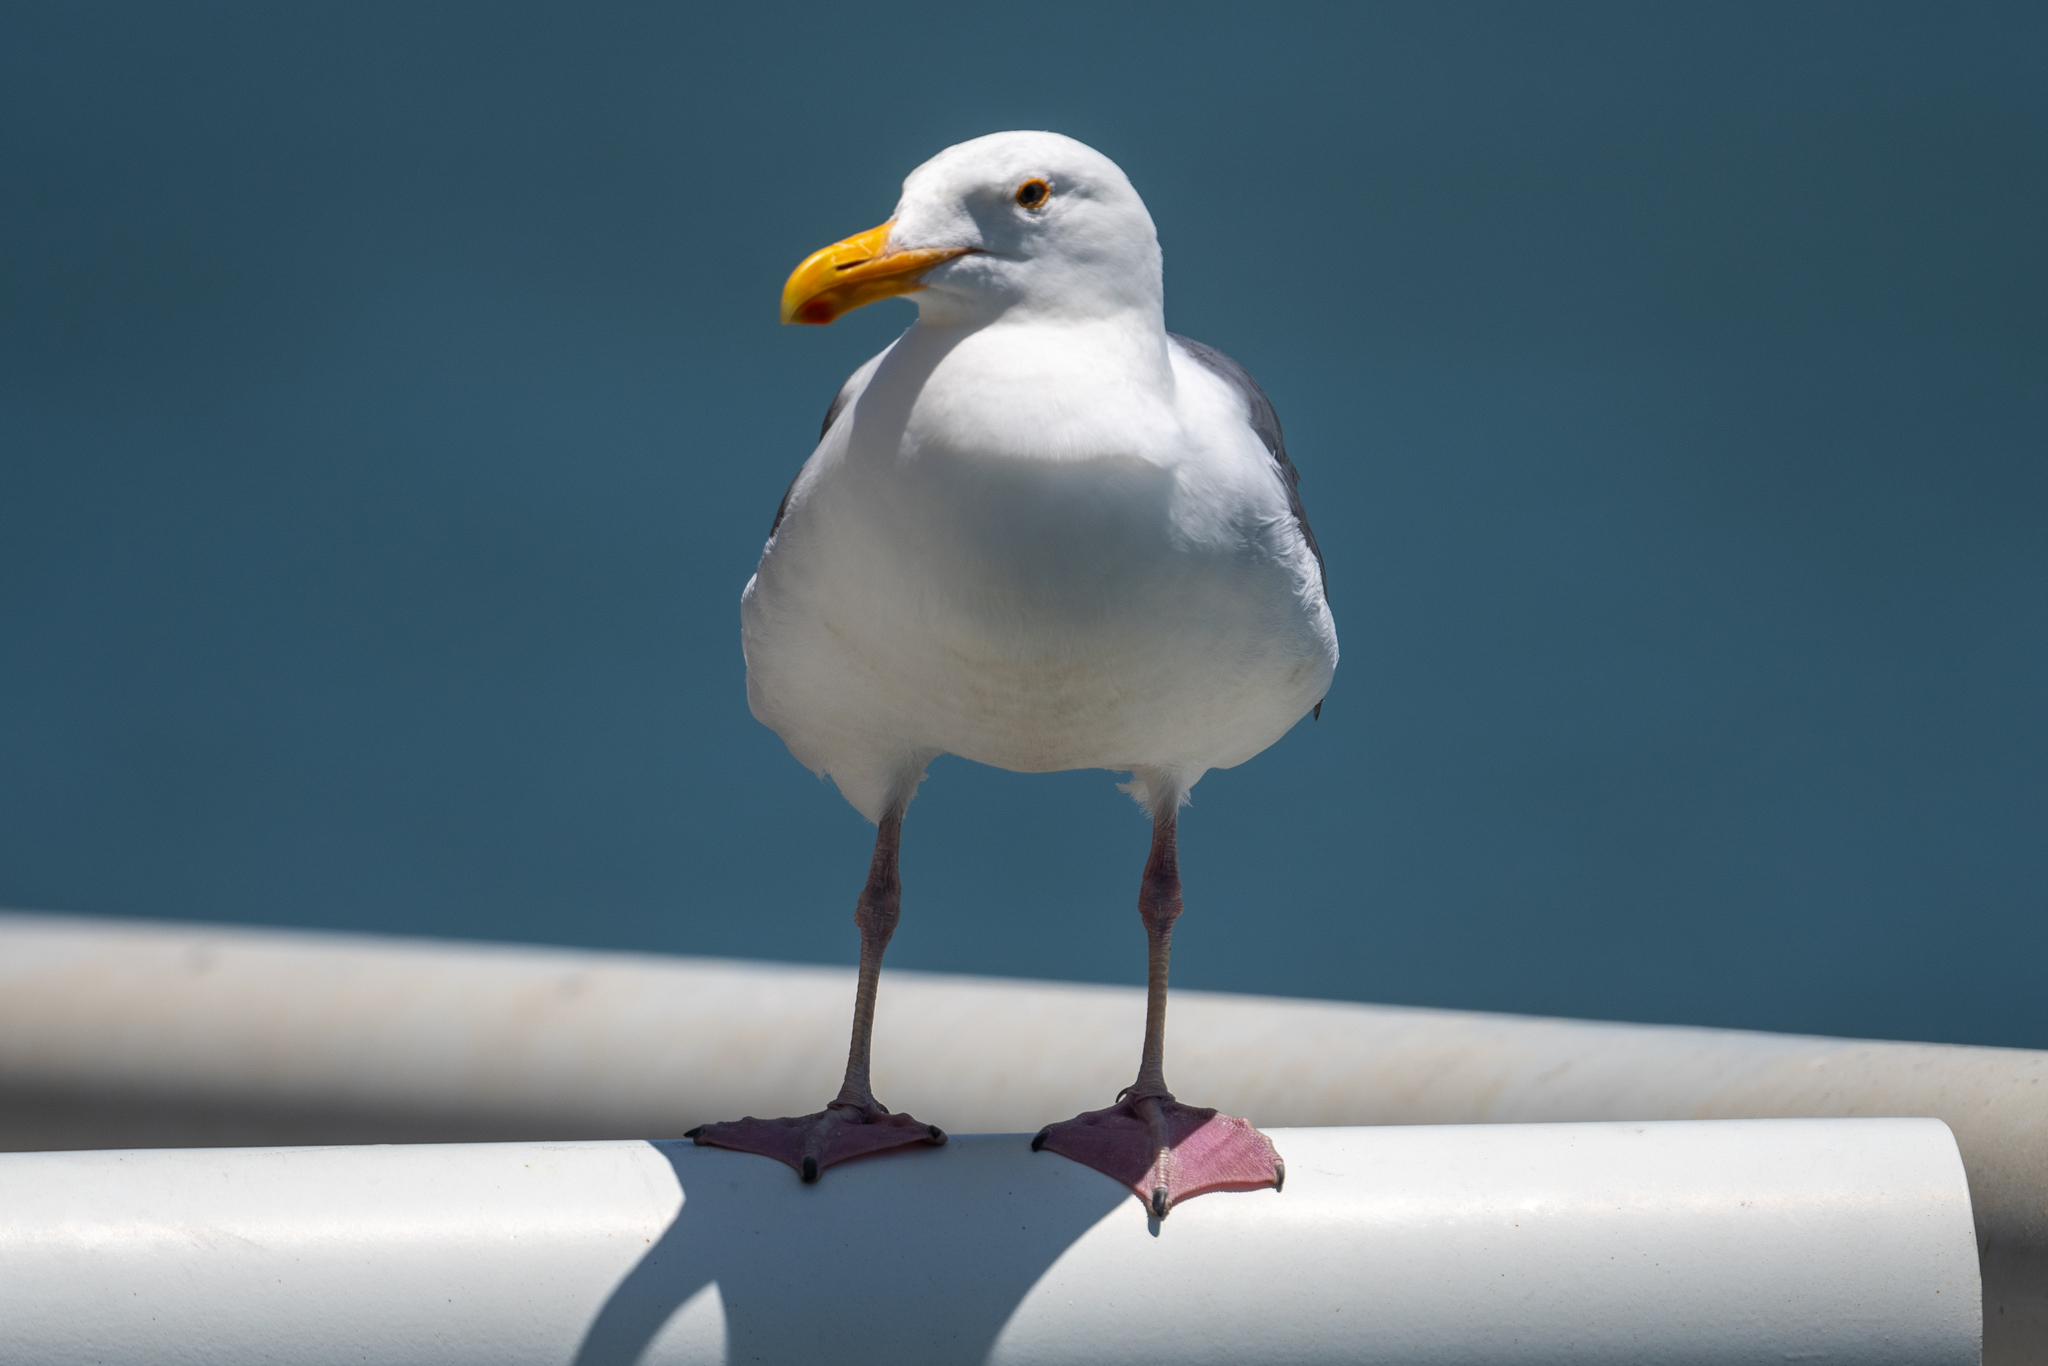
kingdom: Animalia
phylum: Chordata
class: Aves
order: Charadriiformes
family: Laridae
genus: Larus
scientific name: Larus occidentalis
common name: Western gull
